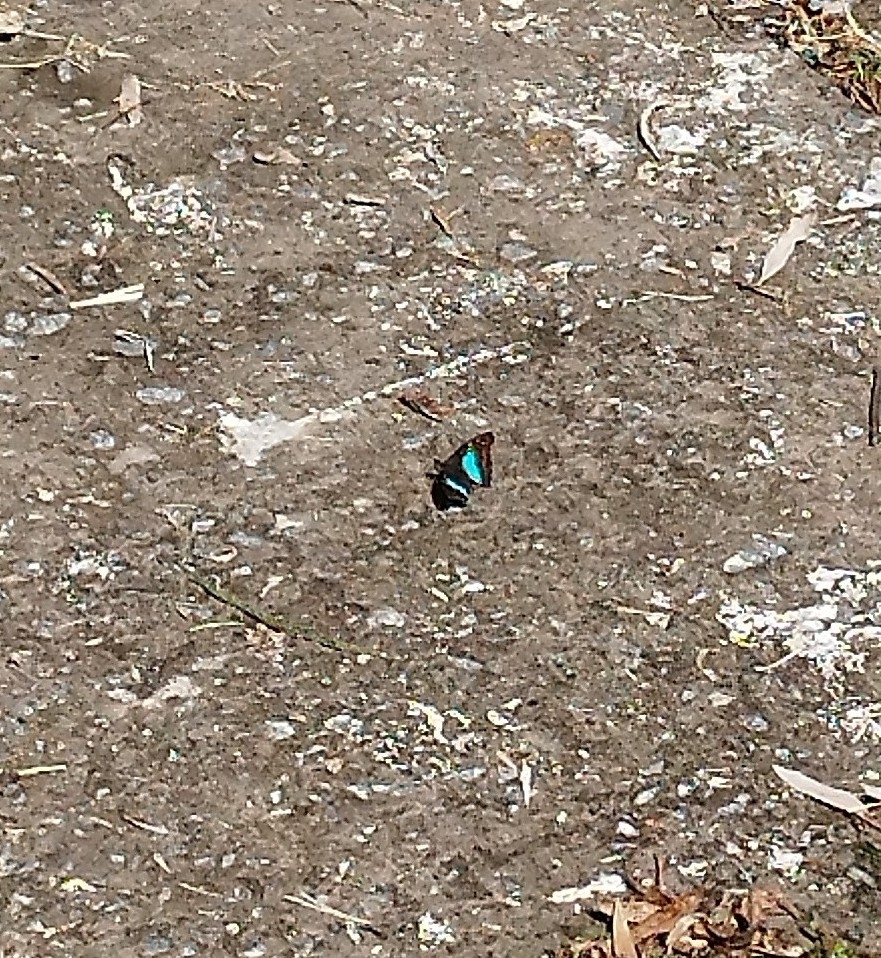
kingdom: Animalia
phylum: Arthropoda
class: Insecta
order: Lepidoptera
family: Nymphalidae
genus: Doxocopa
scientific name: Doxocopa laurentia
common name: Turquoise emperor
